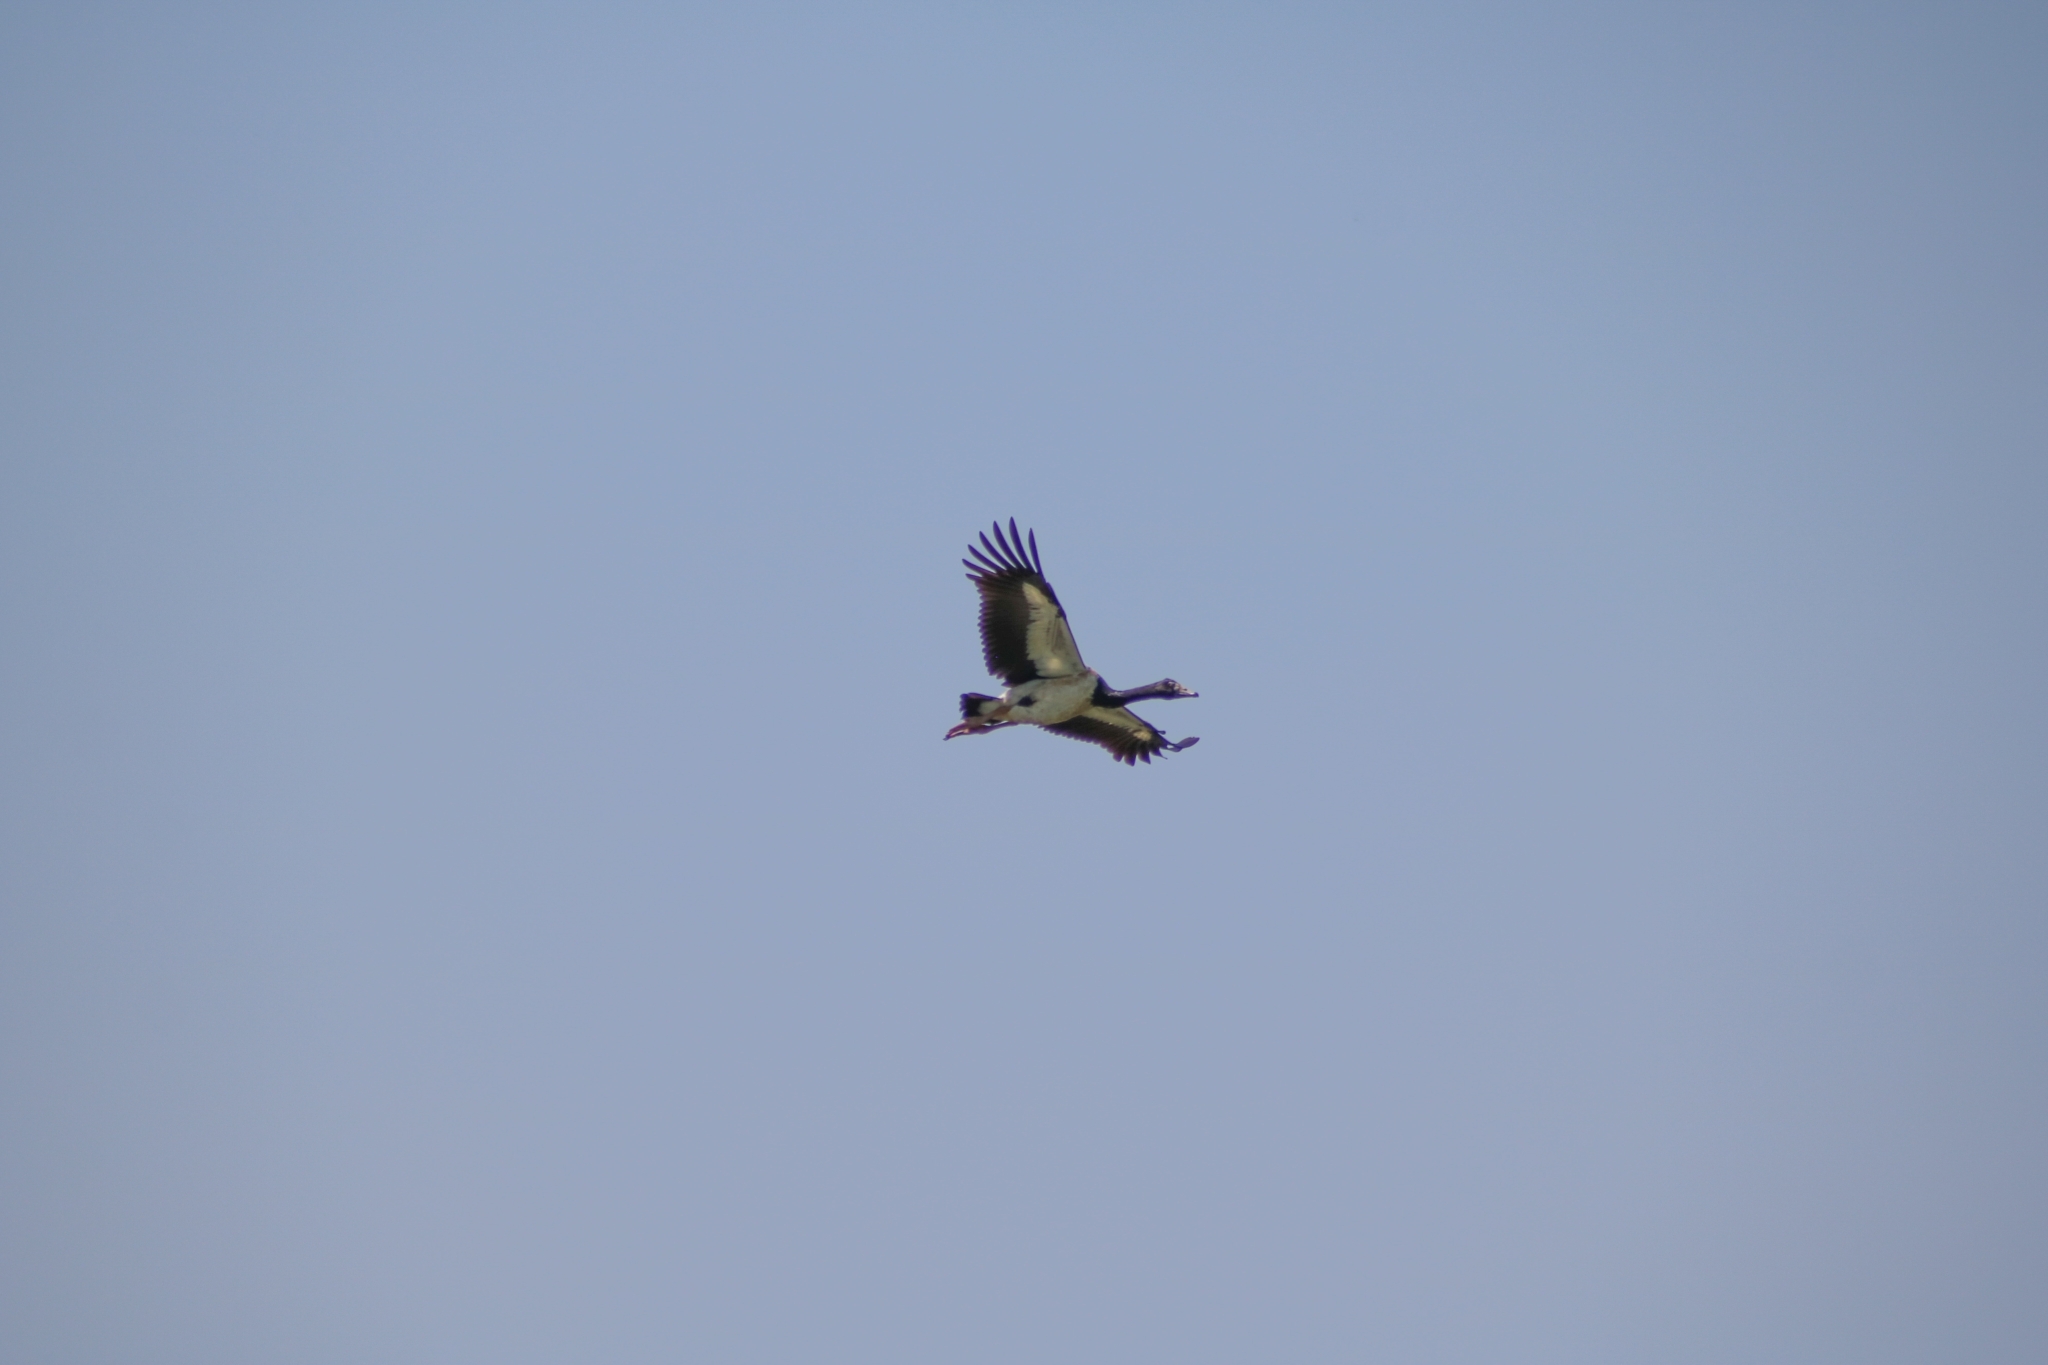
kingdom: Animalia
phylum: Chordata
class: Aves
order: Anseriformes
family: Anseranatidae
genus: Anseranas
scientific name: Anseranas semipalmata
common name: Magpie goose
